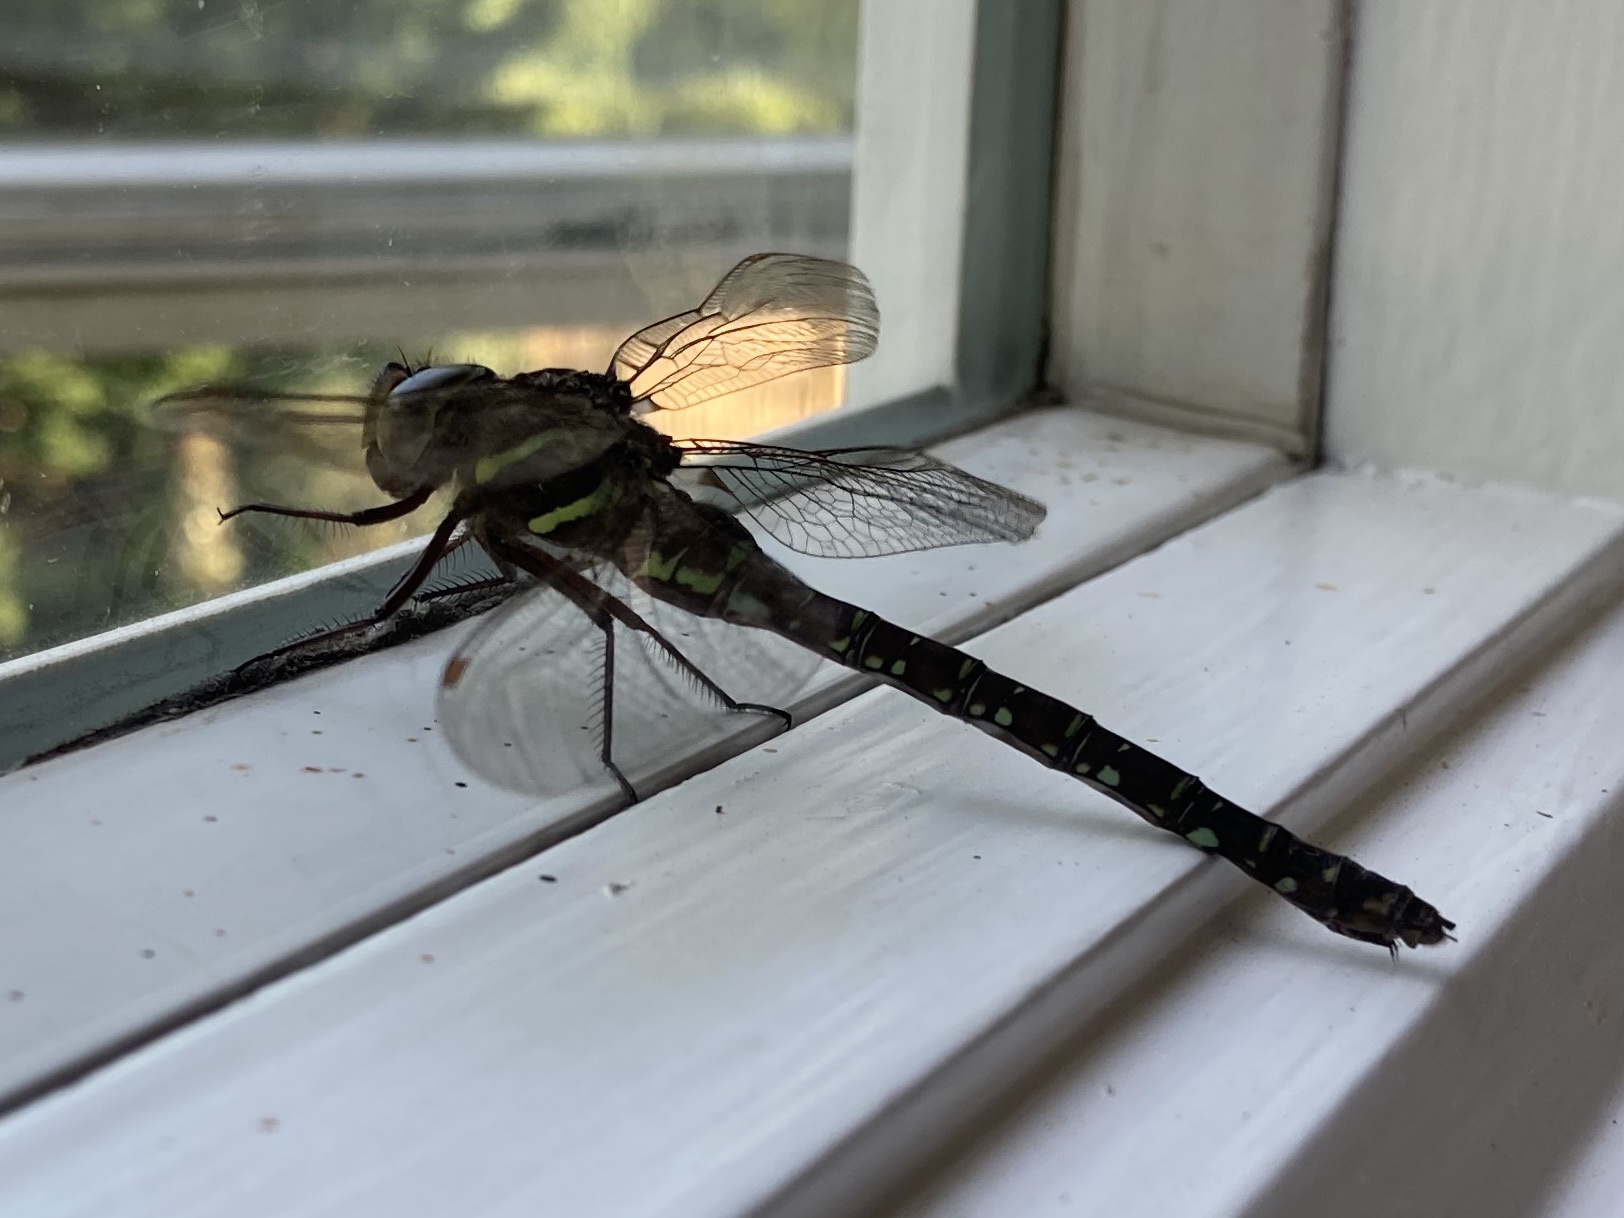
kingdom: Animalia
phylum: Arthropoda
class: Insecta
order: Odonata
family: Aeshnidae
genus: Aeshna
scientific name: Aeshna umbrosa
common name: Shadow darner
